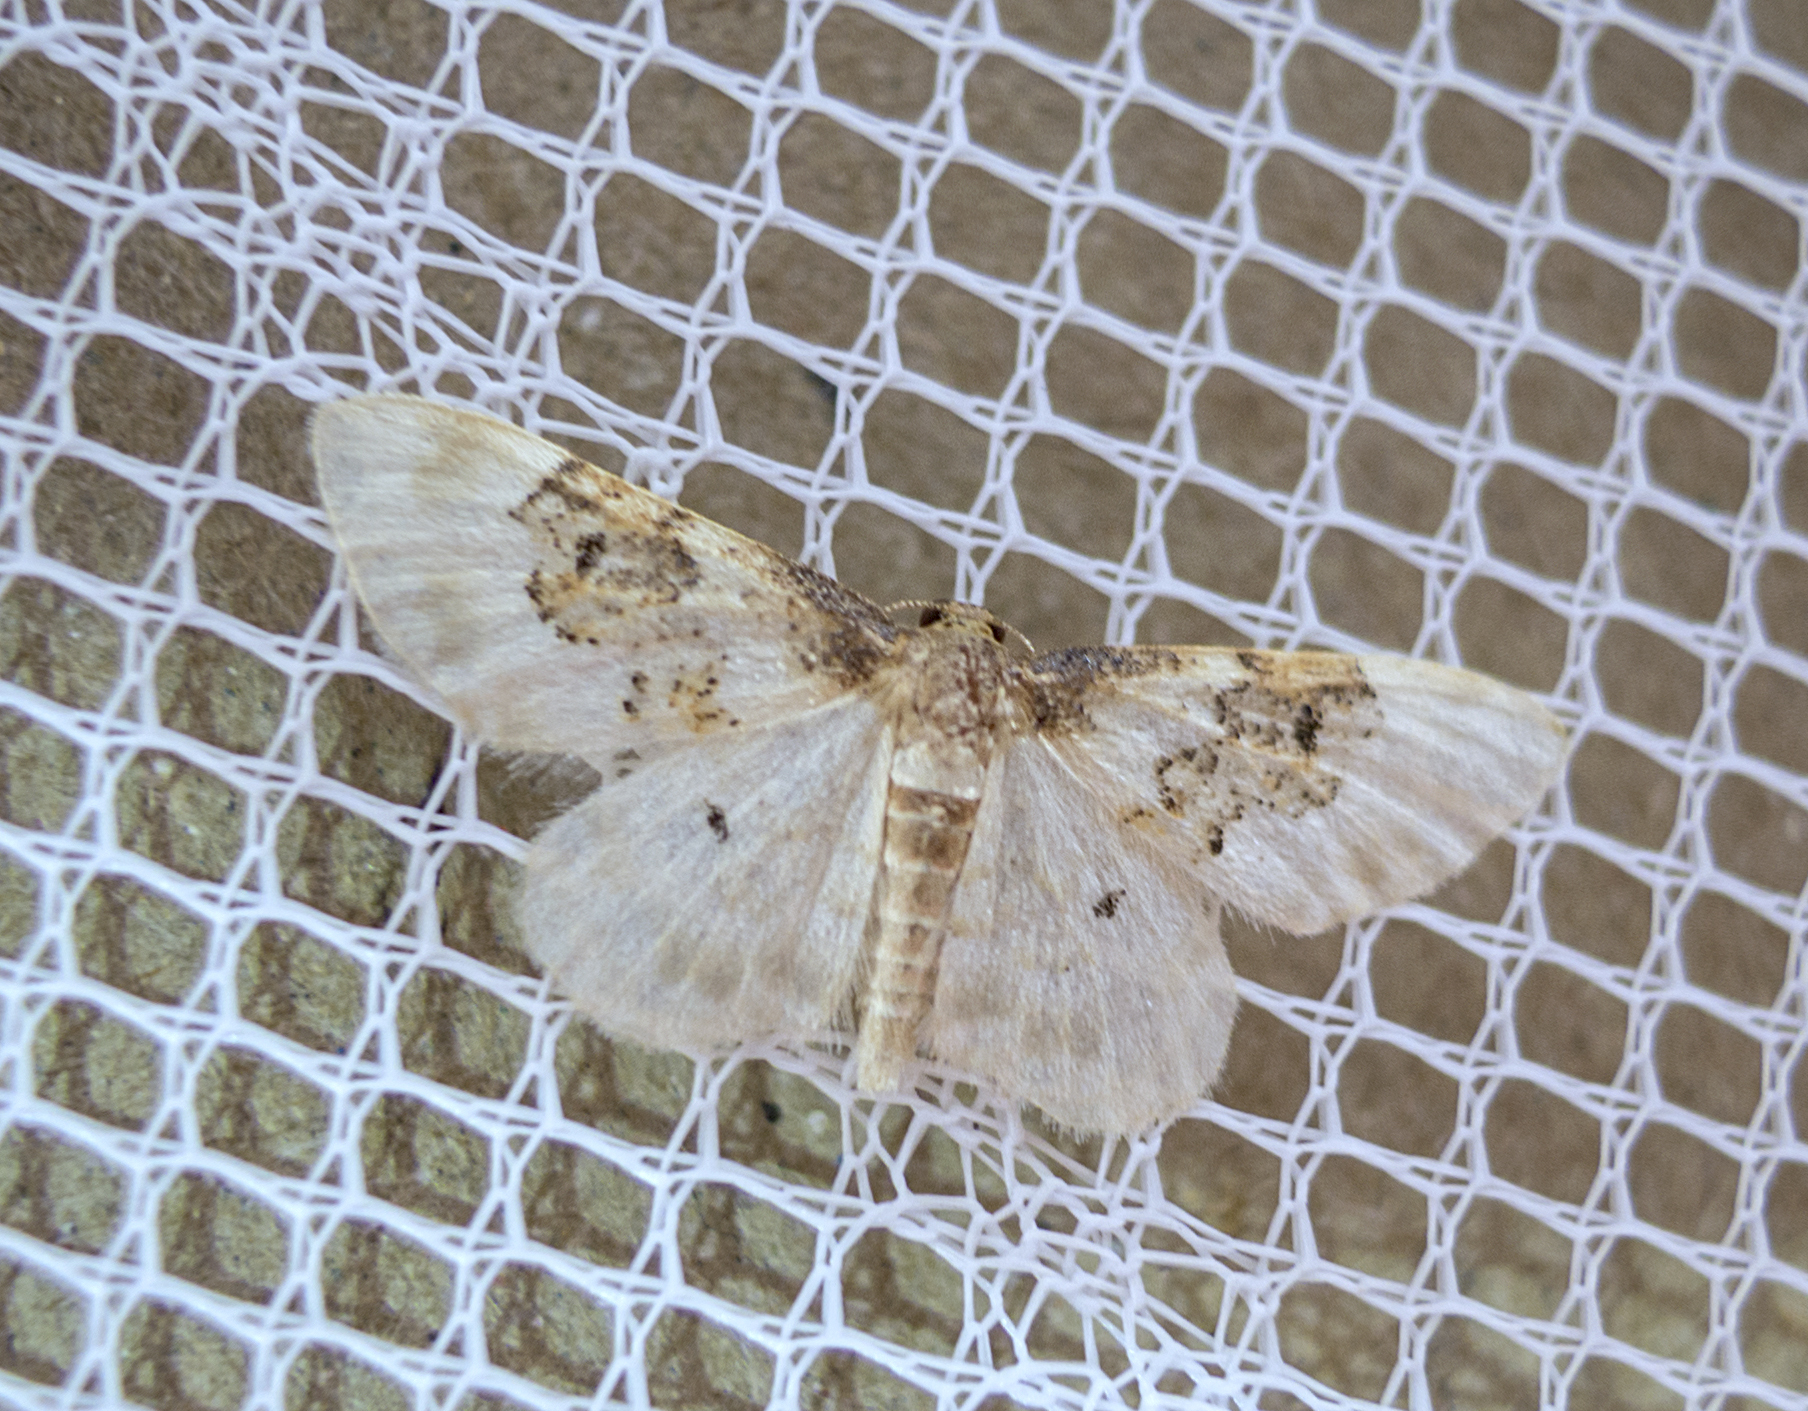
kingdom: Animalia
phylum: Arthropoda
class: Insecta
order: Lepidoptera
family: Geometridae
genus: Idaea
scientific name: Idaea rusticata
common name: Least carpet
